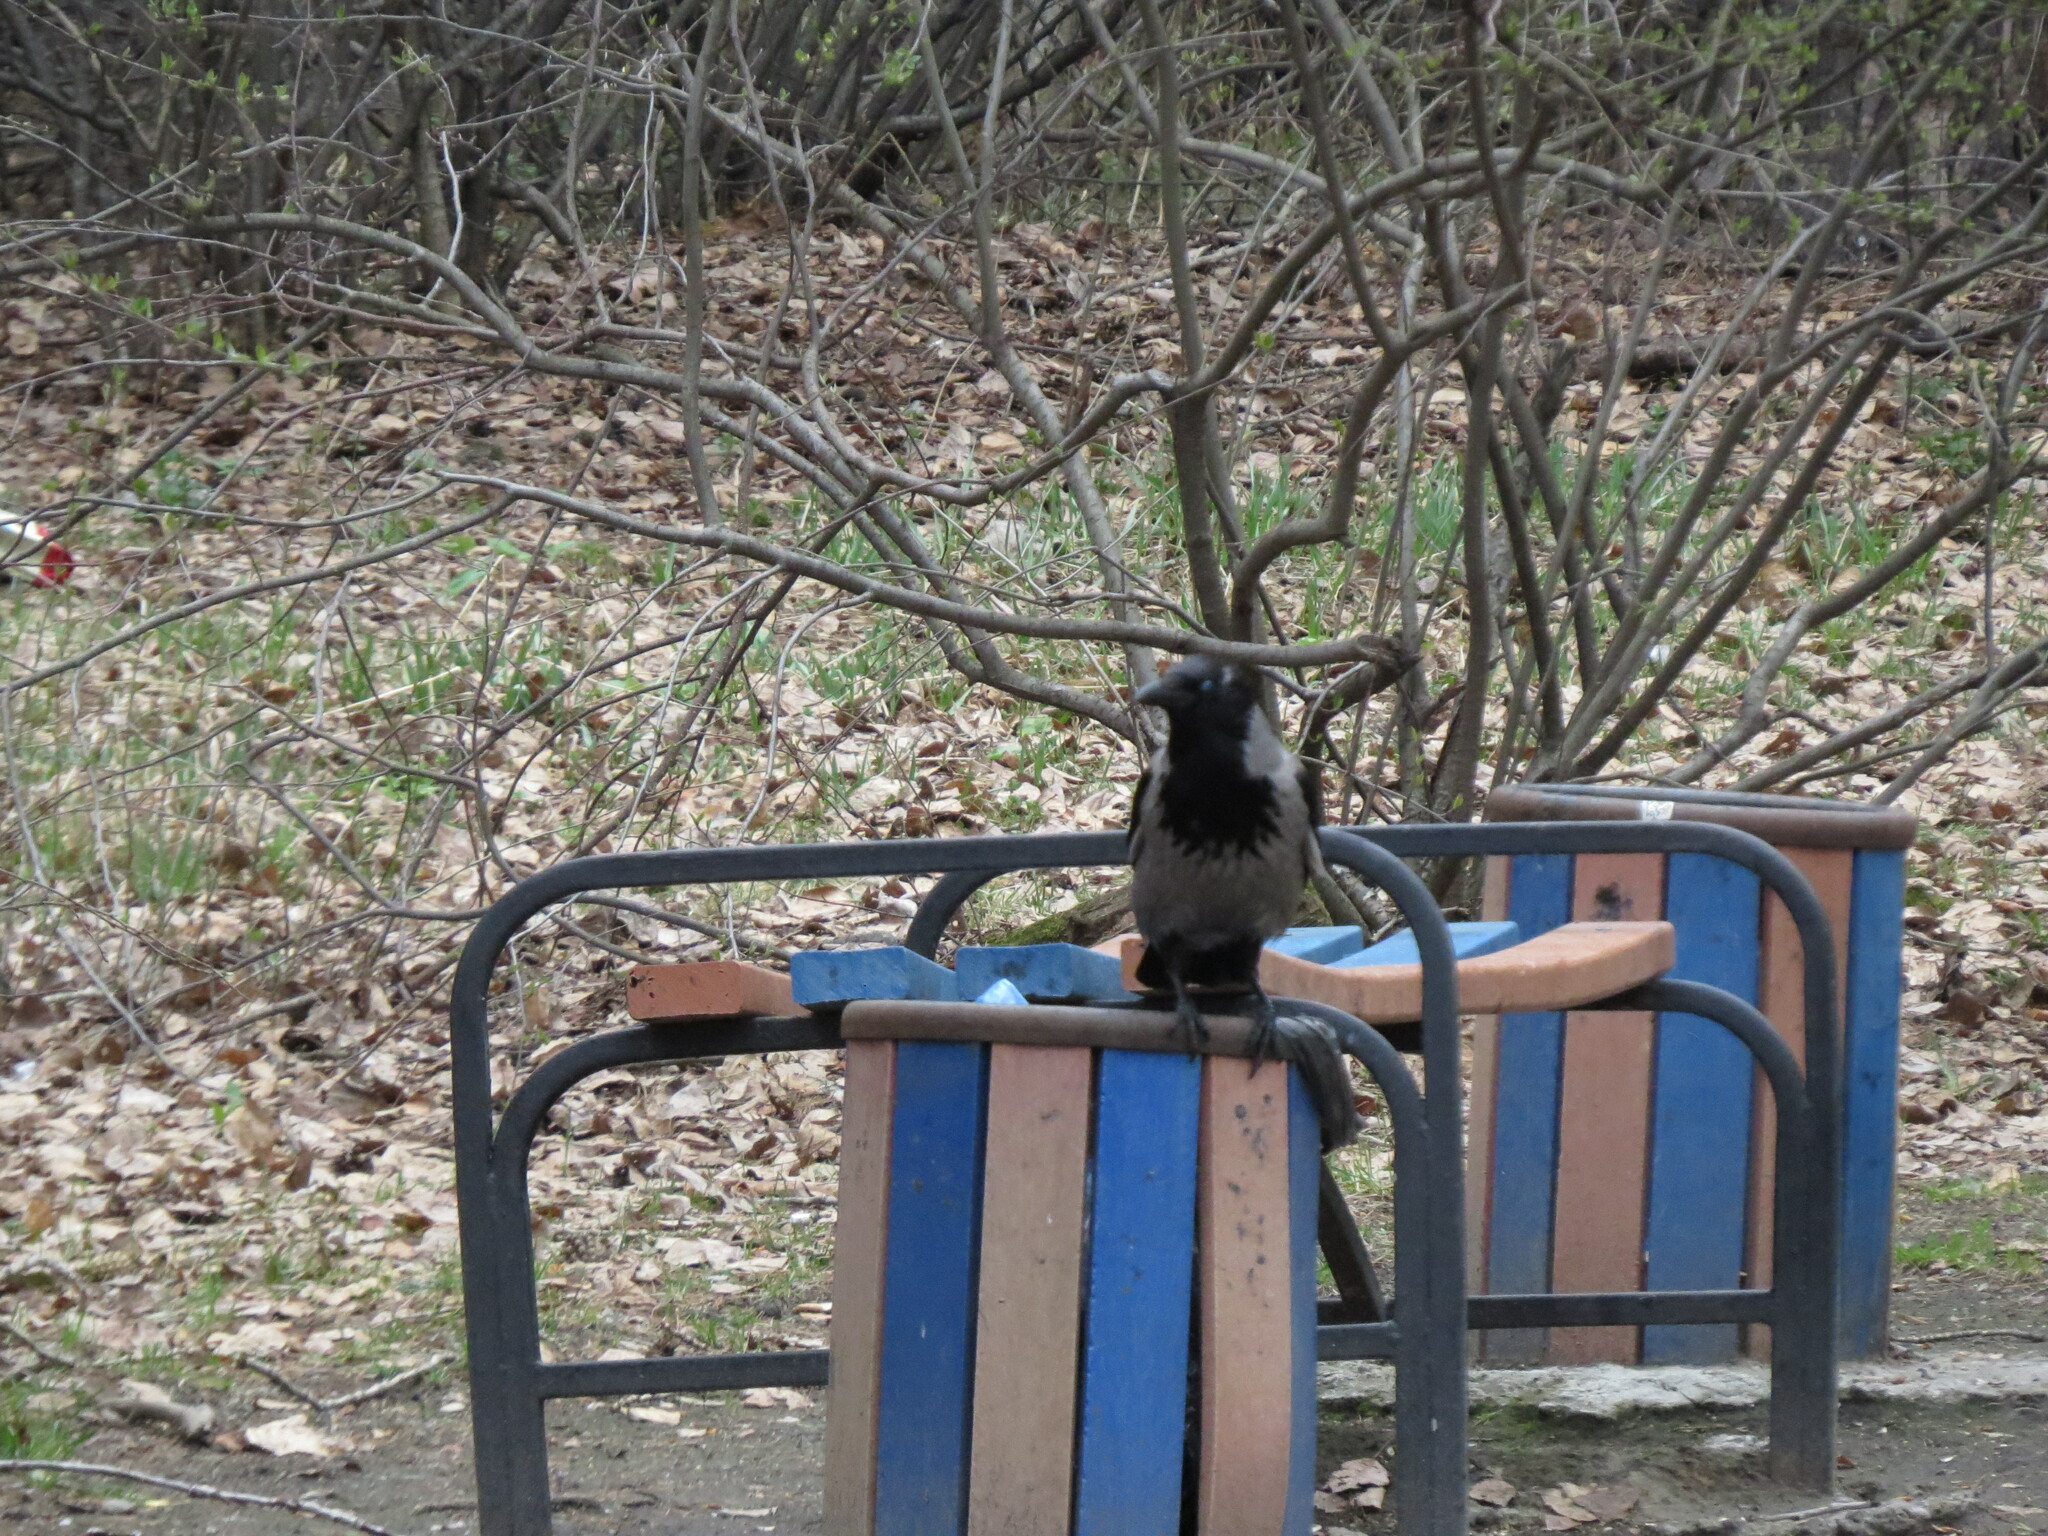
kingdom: Animalia
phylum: Chordata
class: Aves
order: Passeriformes
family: Corvidae
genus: Corvus
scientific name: Corvus cornix
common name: Hooded crow
